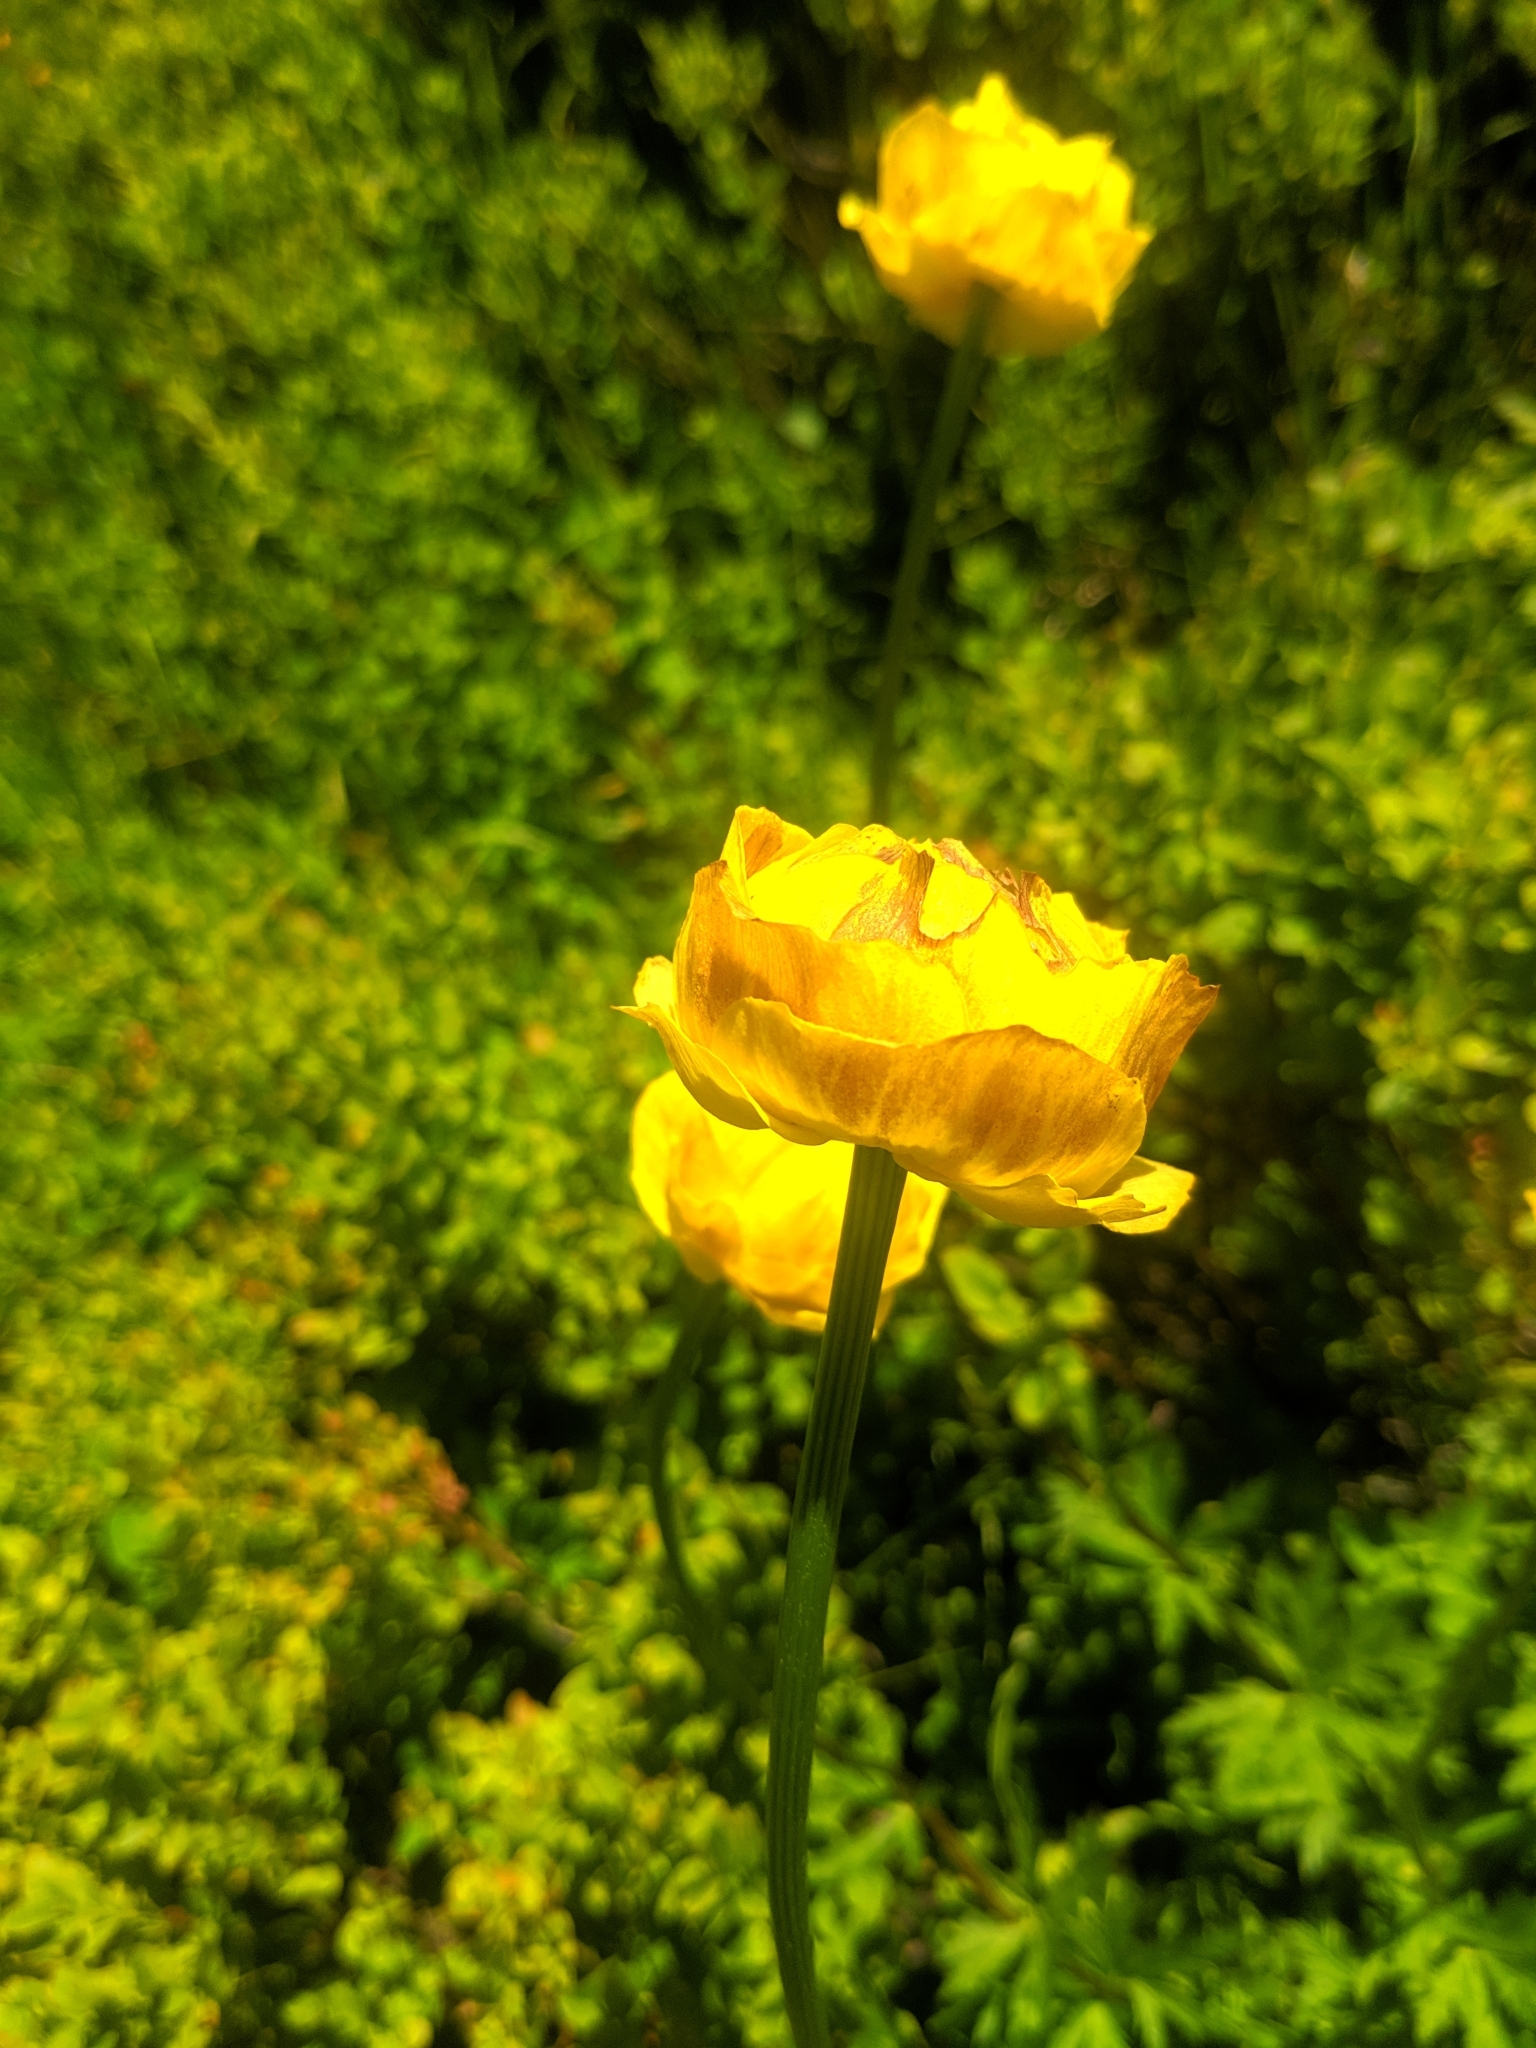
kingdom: Plantae
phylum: Tracheophyta
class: Magnoliopsida
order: Ranunculales
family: Ranunculaceae
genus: Trollius
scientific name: Trollius europaeus
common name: European globeflower
